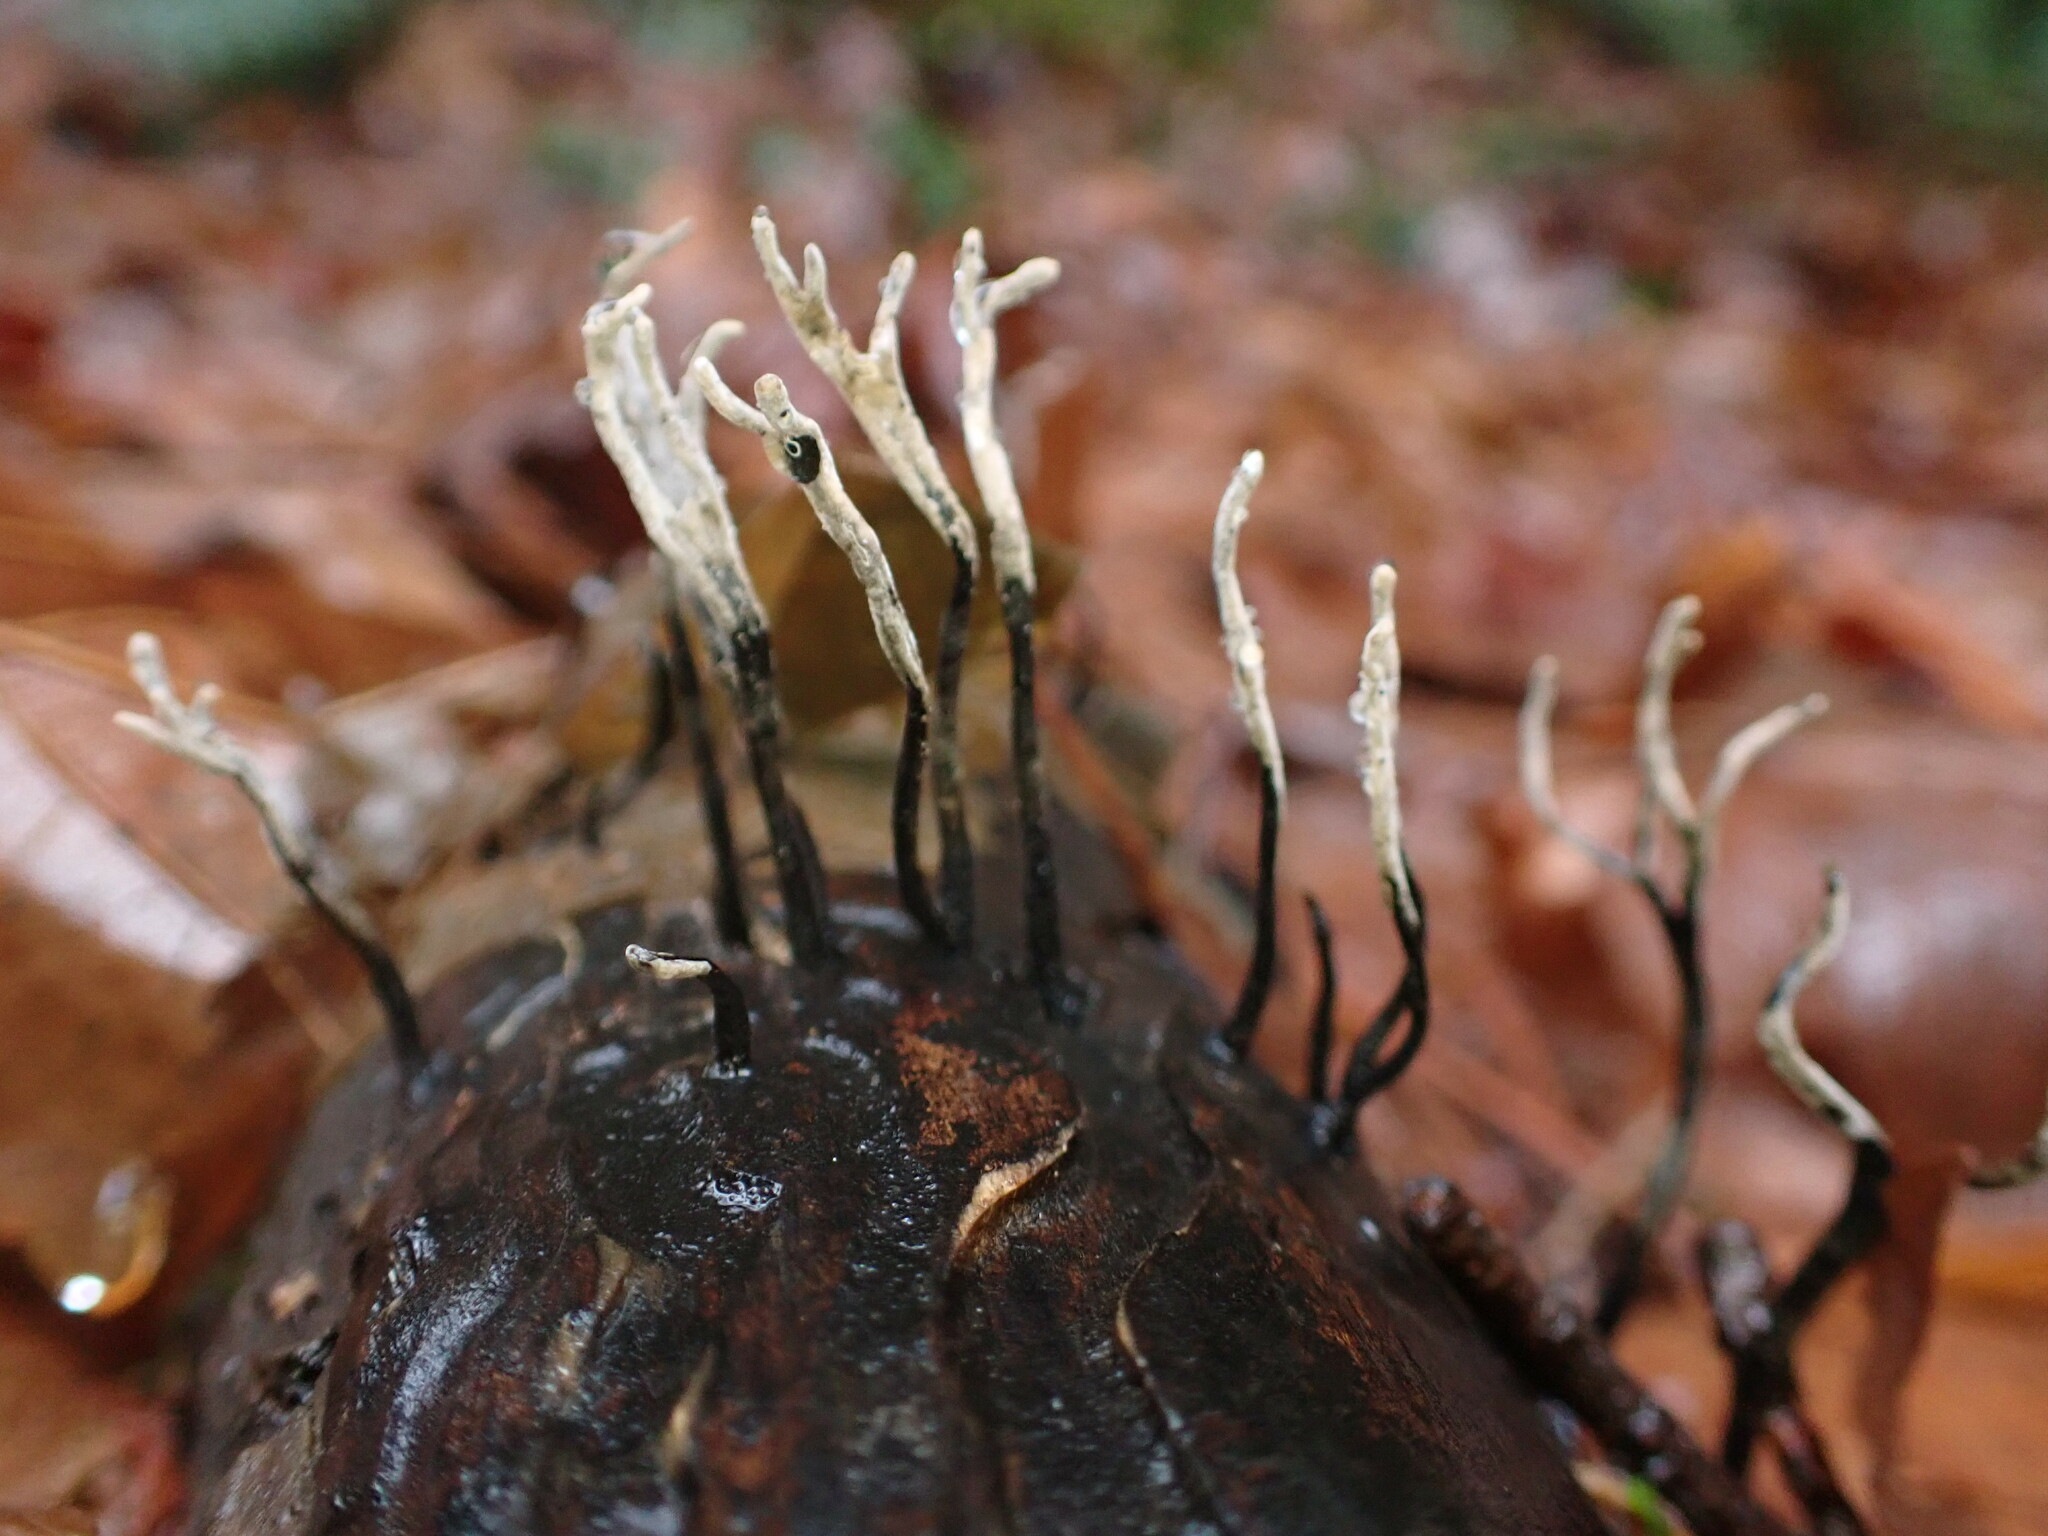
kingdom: Fungi
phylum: Ascomycota
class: Sordariomycetes
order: Xylariales
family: Xylariaceae
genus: Xylaria
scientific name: Xylaria hypoxylon
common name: Candle-snuff fungus
